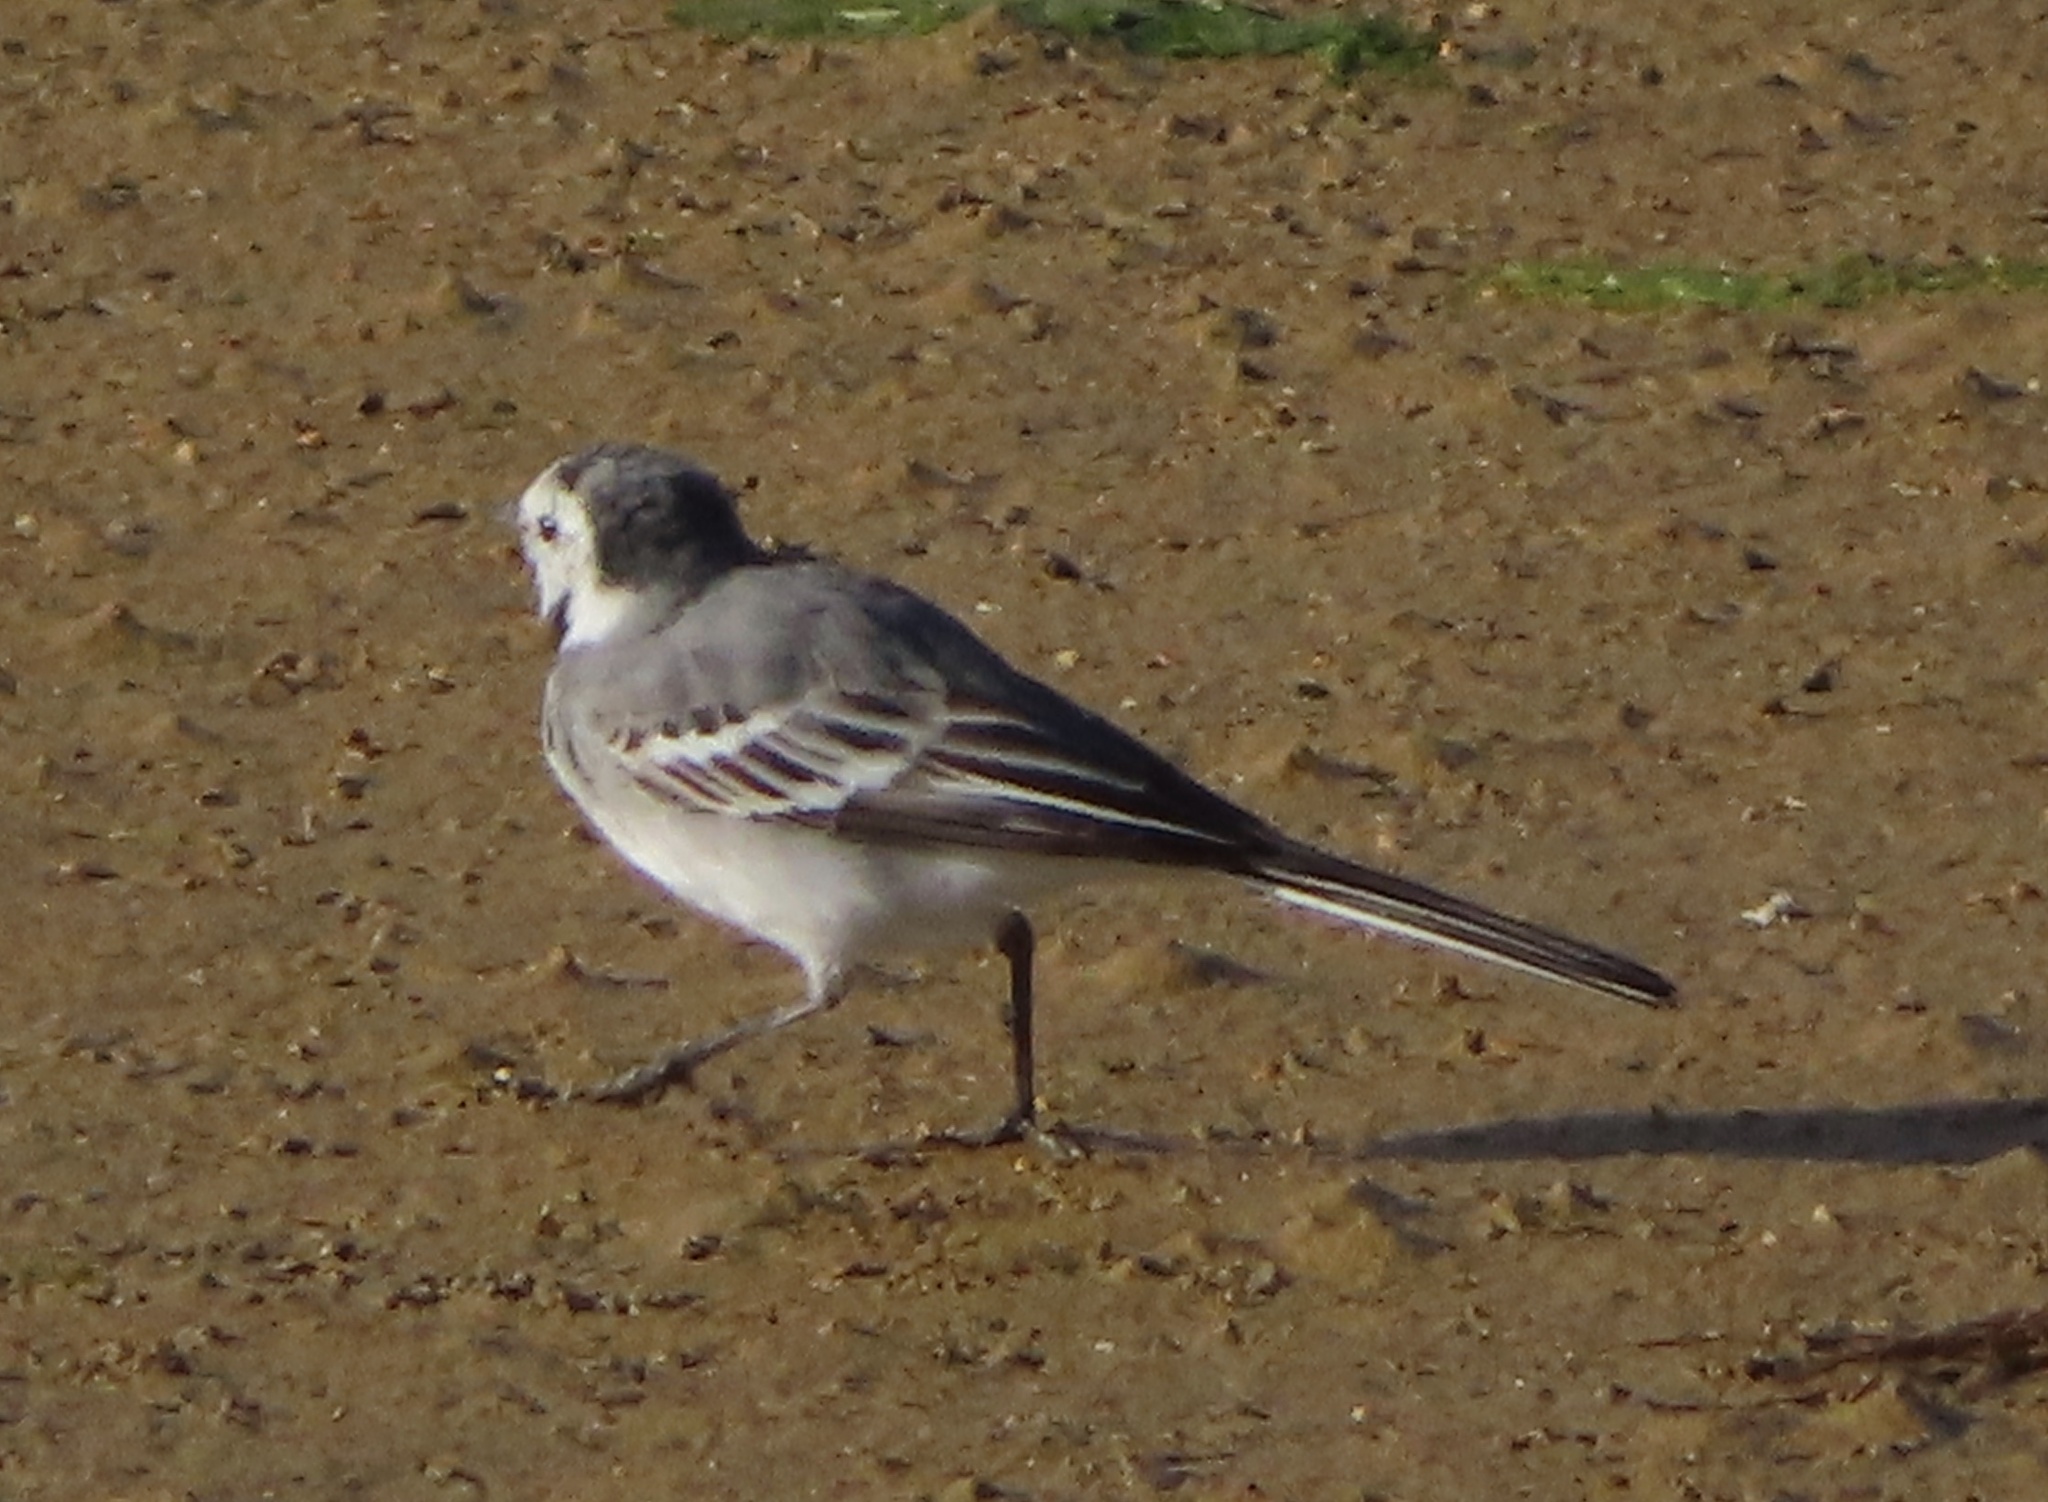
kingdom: Animalia
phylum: Chordata
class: Aves
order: Passeriformes
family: Motacillidae
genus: Motacilla
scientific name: Motacilla alba
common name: White wagtail
